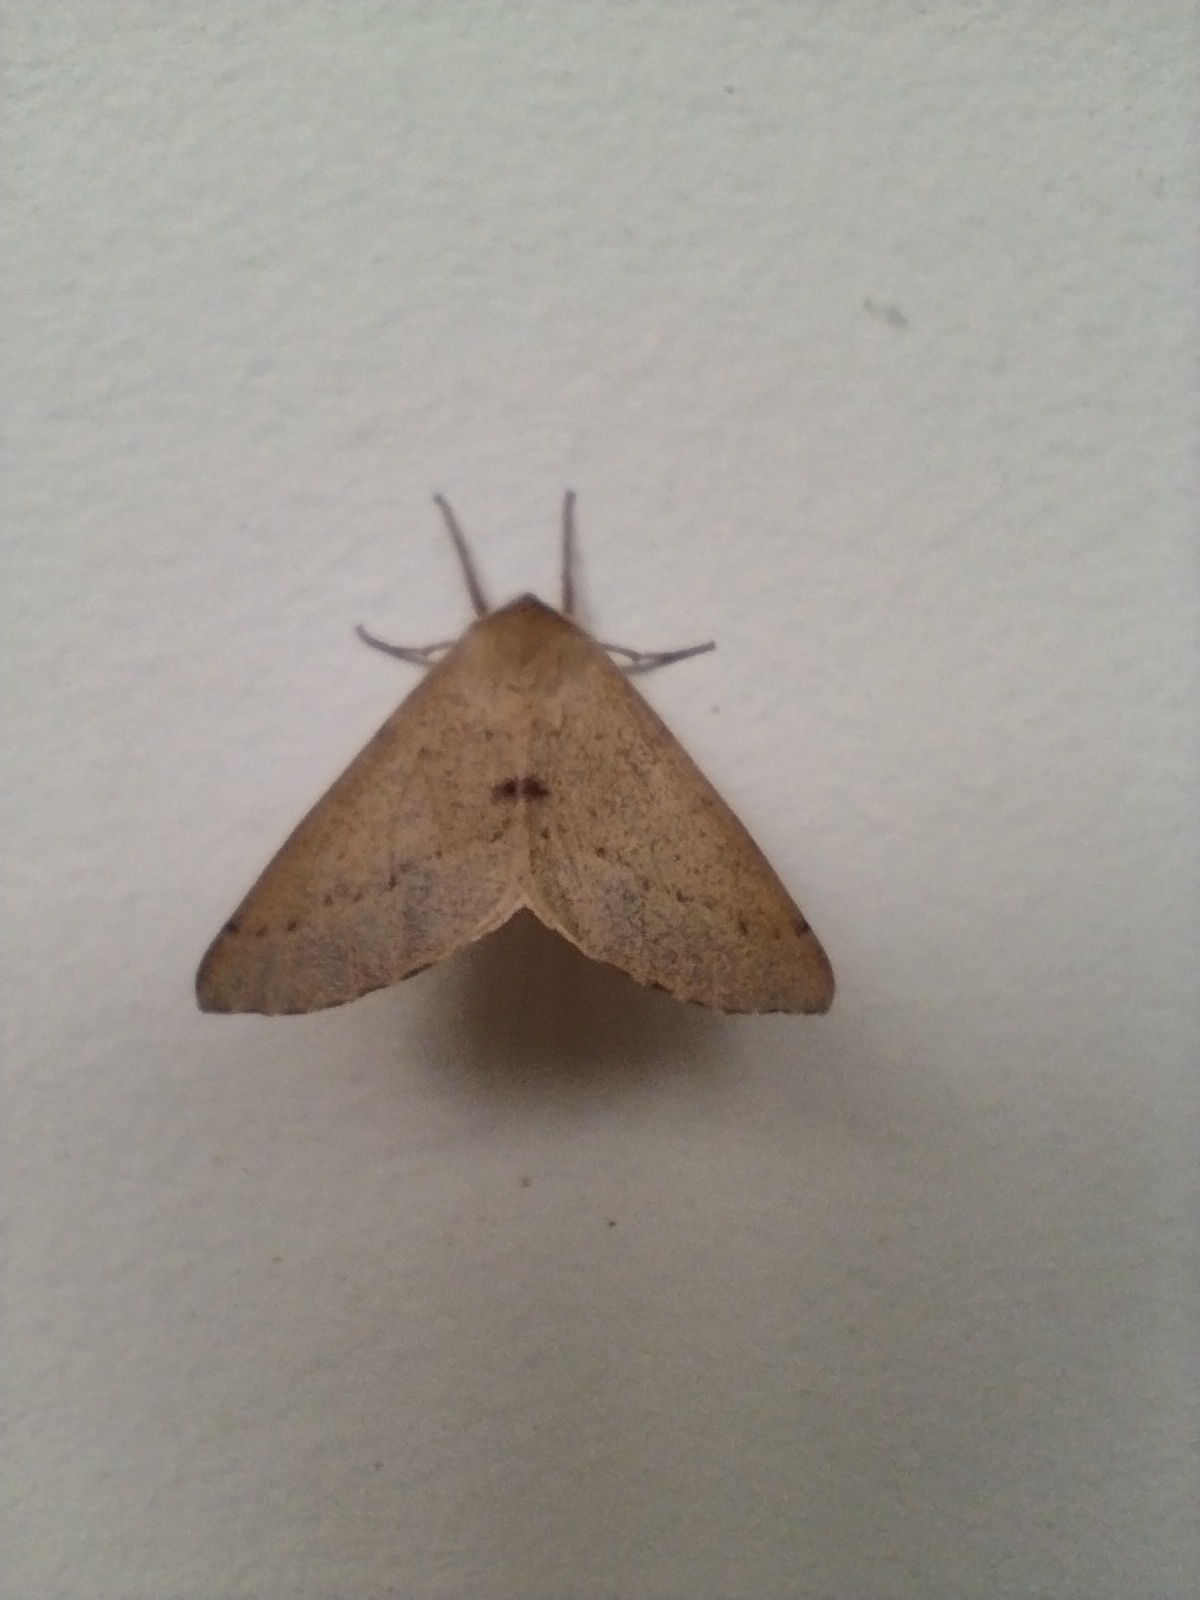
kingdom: Animalia
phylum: Arthropoda
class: Insecta
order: Lepidoptera
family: Geometridae
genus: Arhodia
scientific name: Arhodia lasiocamparia
